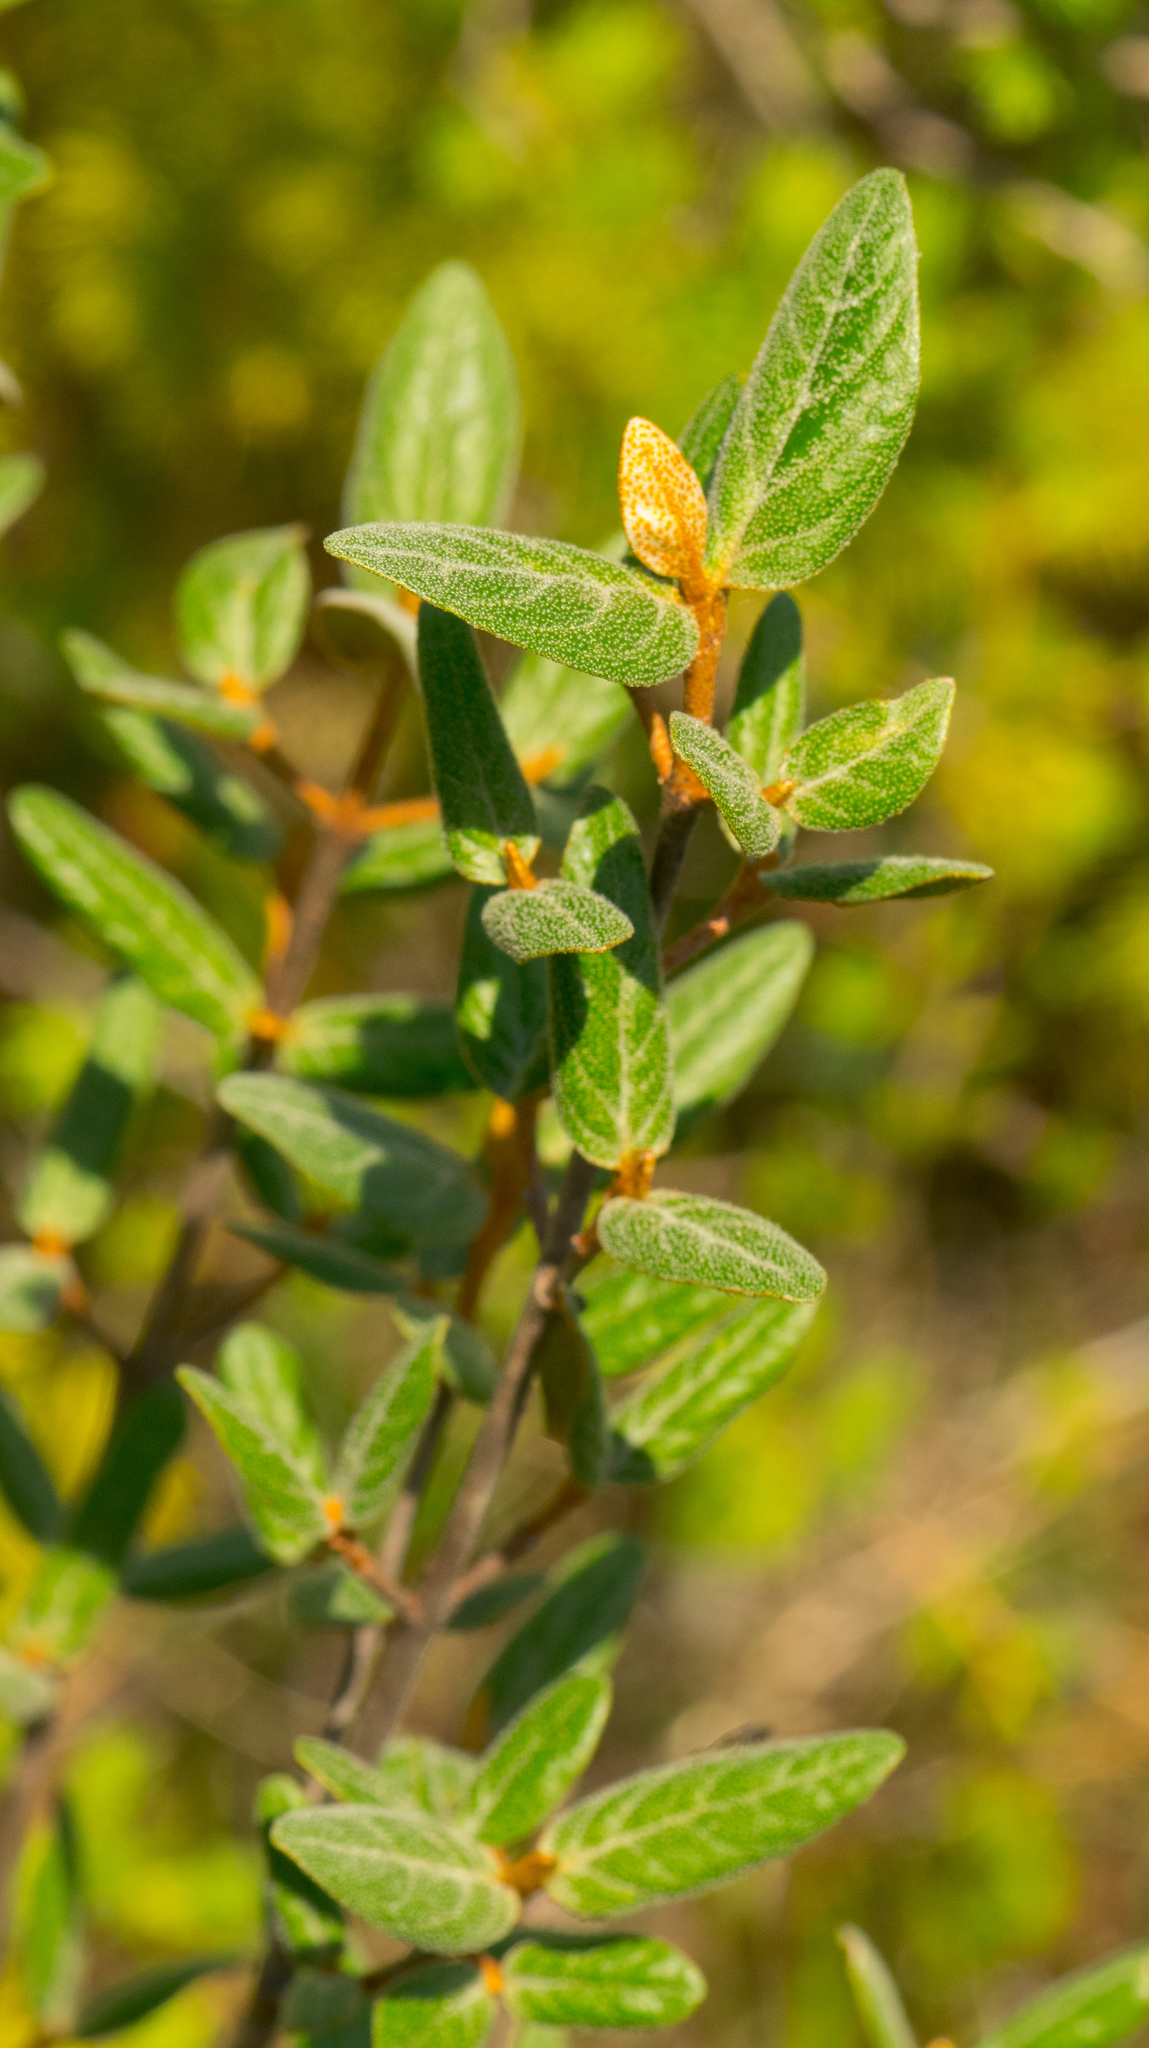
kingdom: Plantae
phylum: Tracheophyta
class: Magnoliopsida
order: Rosales
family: Elaeagnaceae
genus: Shepherdia
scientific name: Shepherdia canadensis
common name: Soapberry
